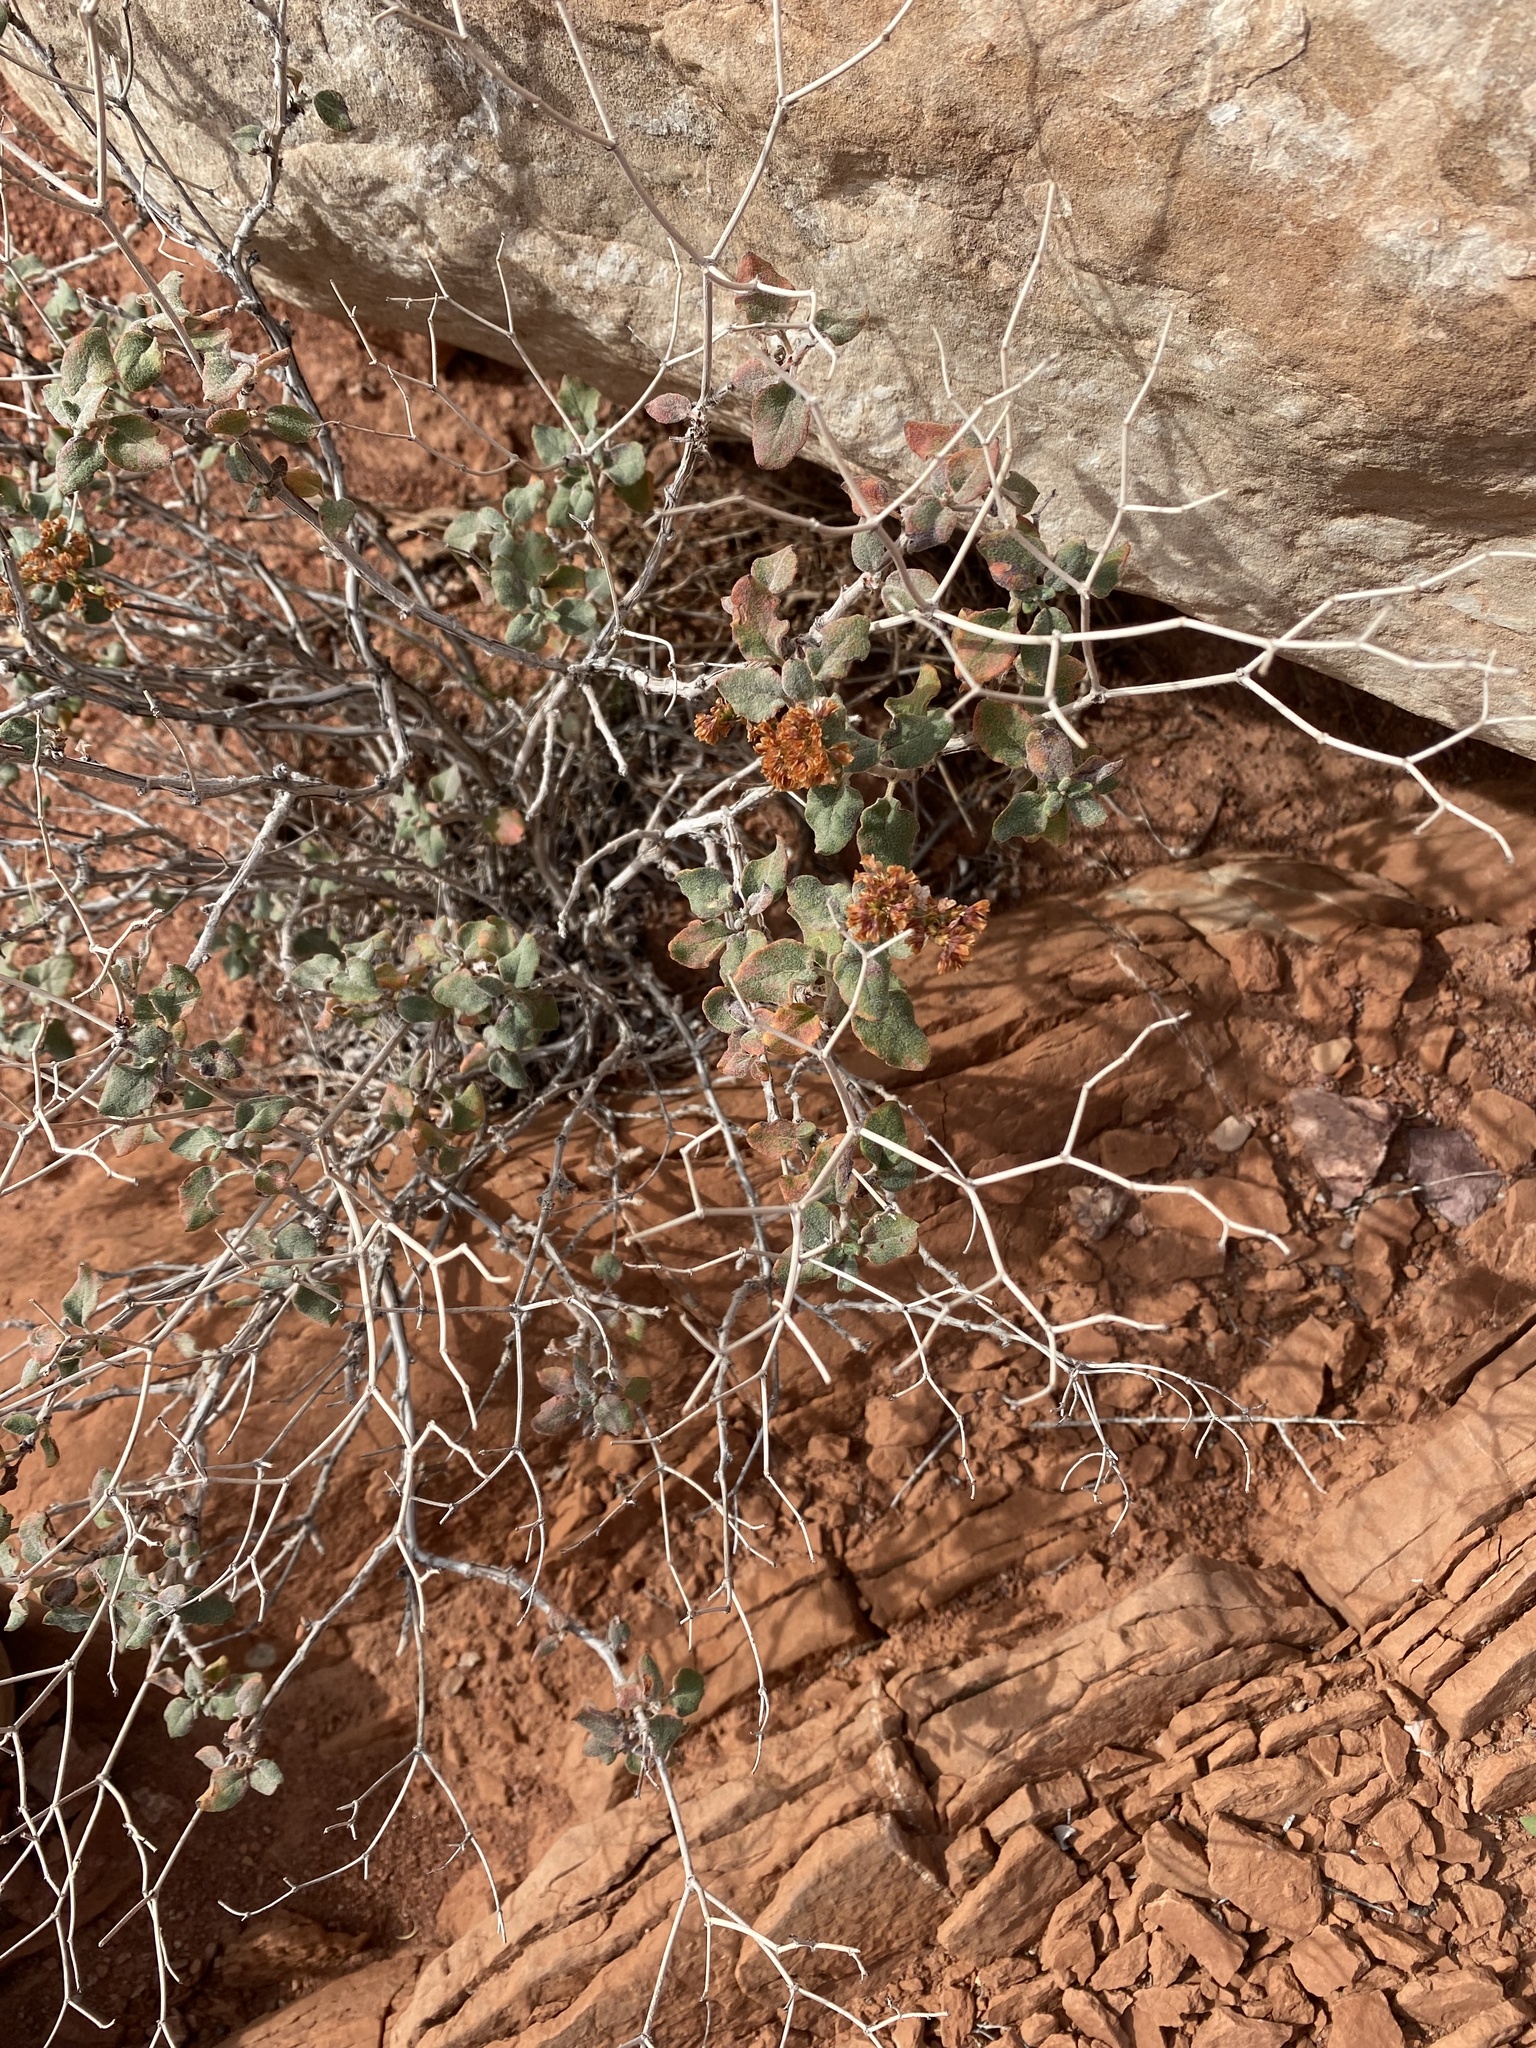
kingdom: Plantae
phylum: Tracheophyta
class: Magnoliopsida
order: Caryophyllales
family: Polygonaceae
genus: Eriogonum
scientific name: Eriogonum corymbosum
